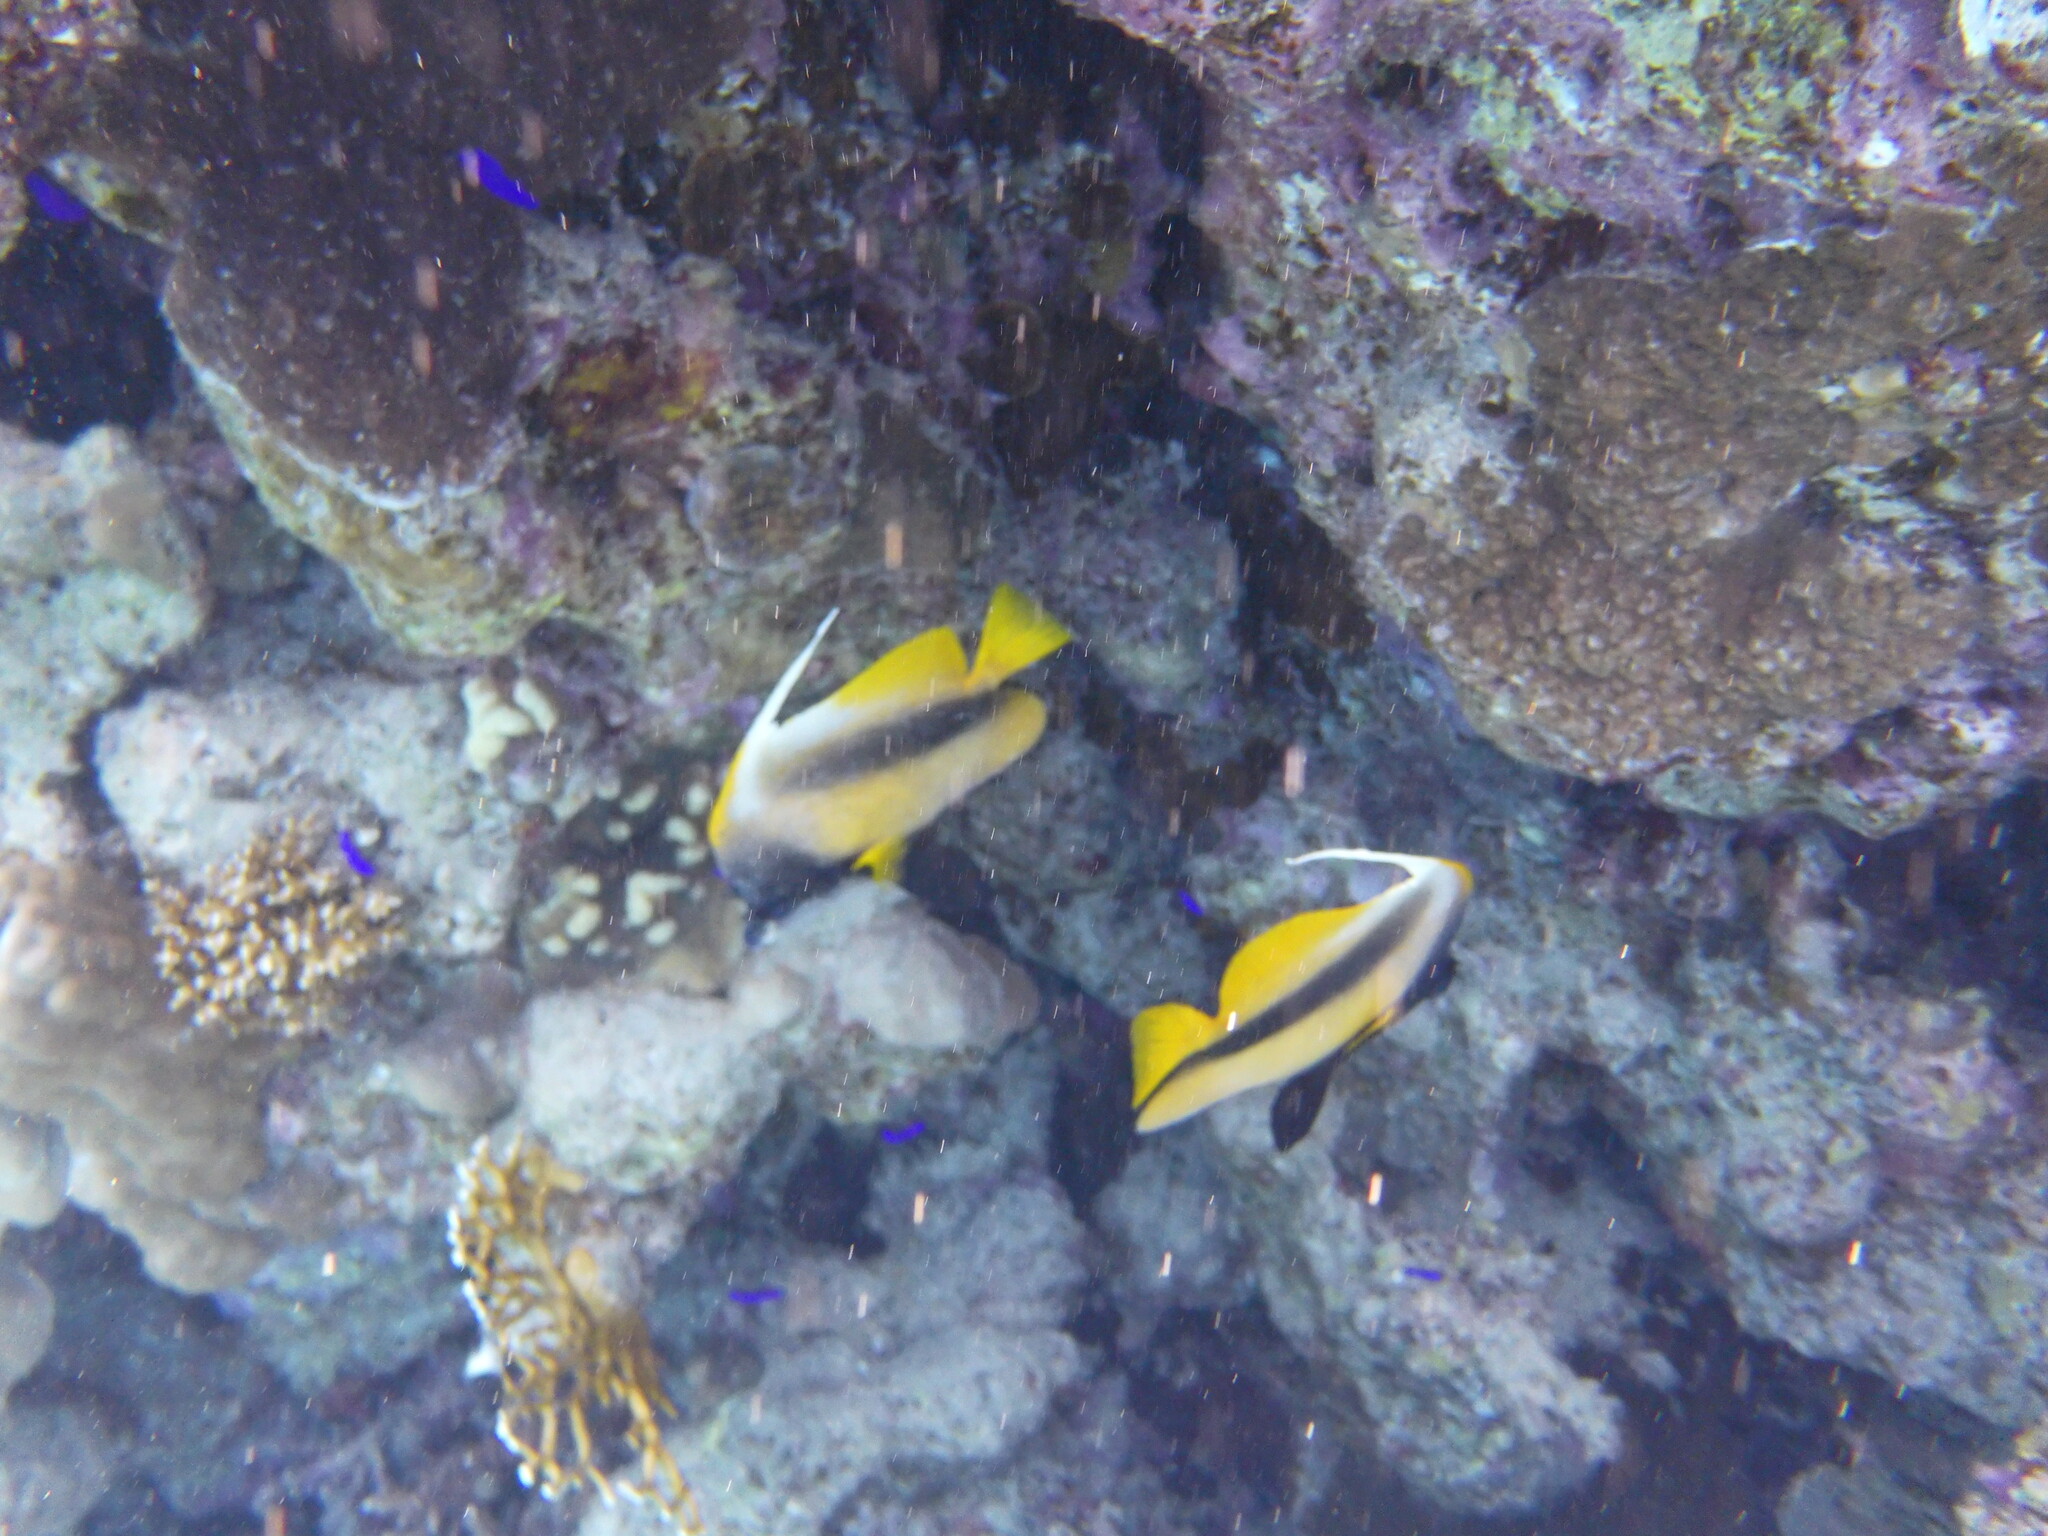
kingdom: Animalia
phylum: Chordata
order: Perciformes
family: Chaetodontidae
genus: Heniochus
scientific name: Heniochus intermedius
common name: Red sea bannerfish
